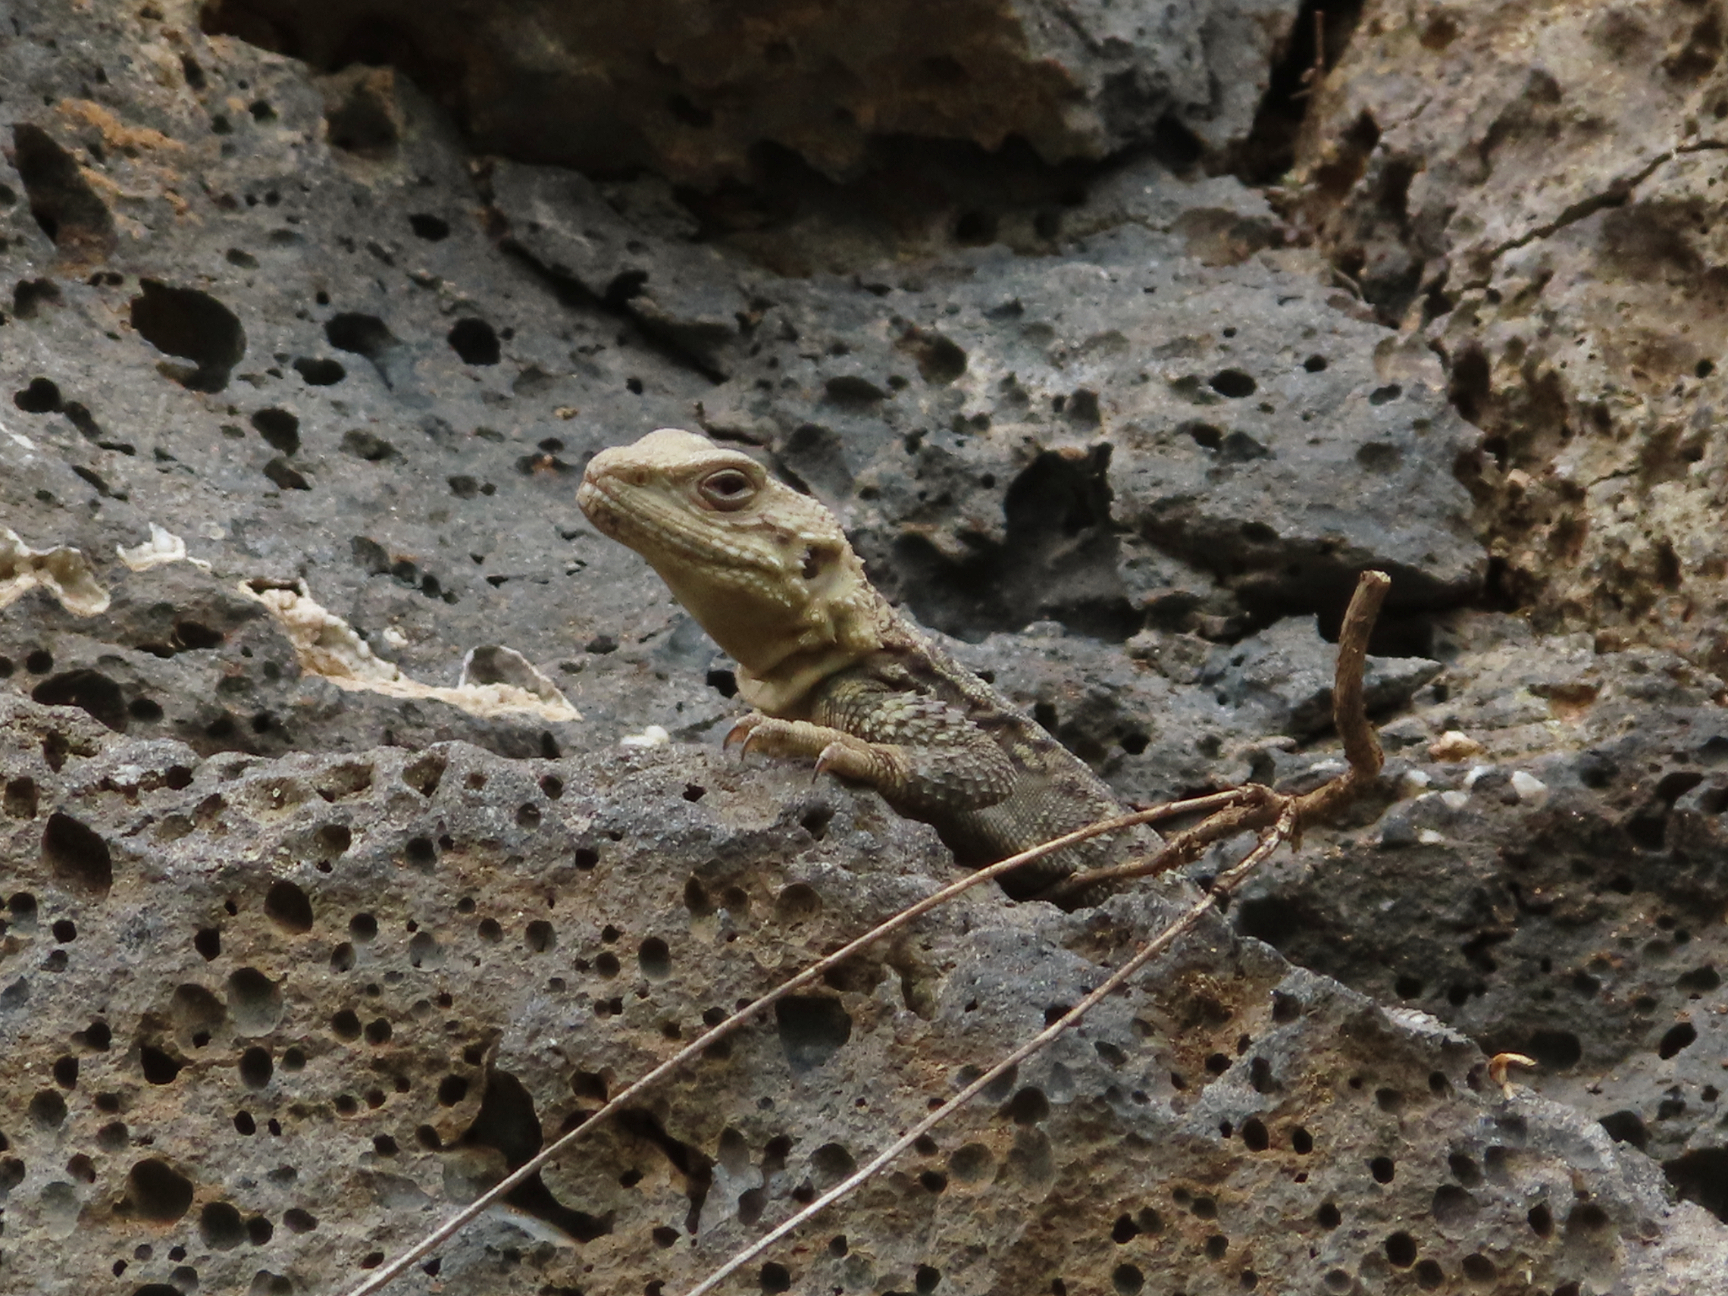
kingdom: Animalia
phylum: Chordata
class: Squamata
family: Agamidae
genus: Paralaudakia
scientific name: Paralaudakia caucasia
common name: Caucasian agama
